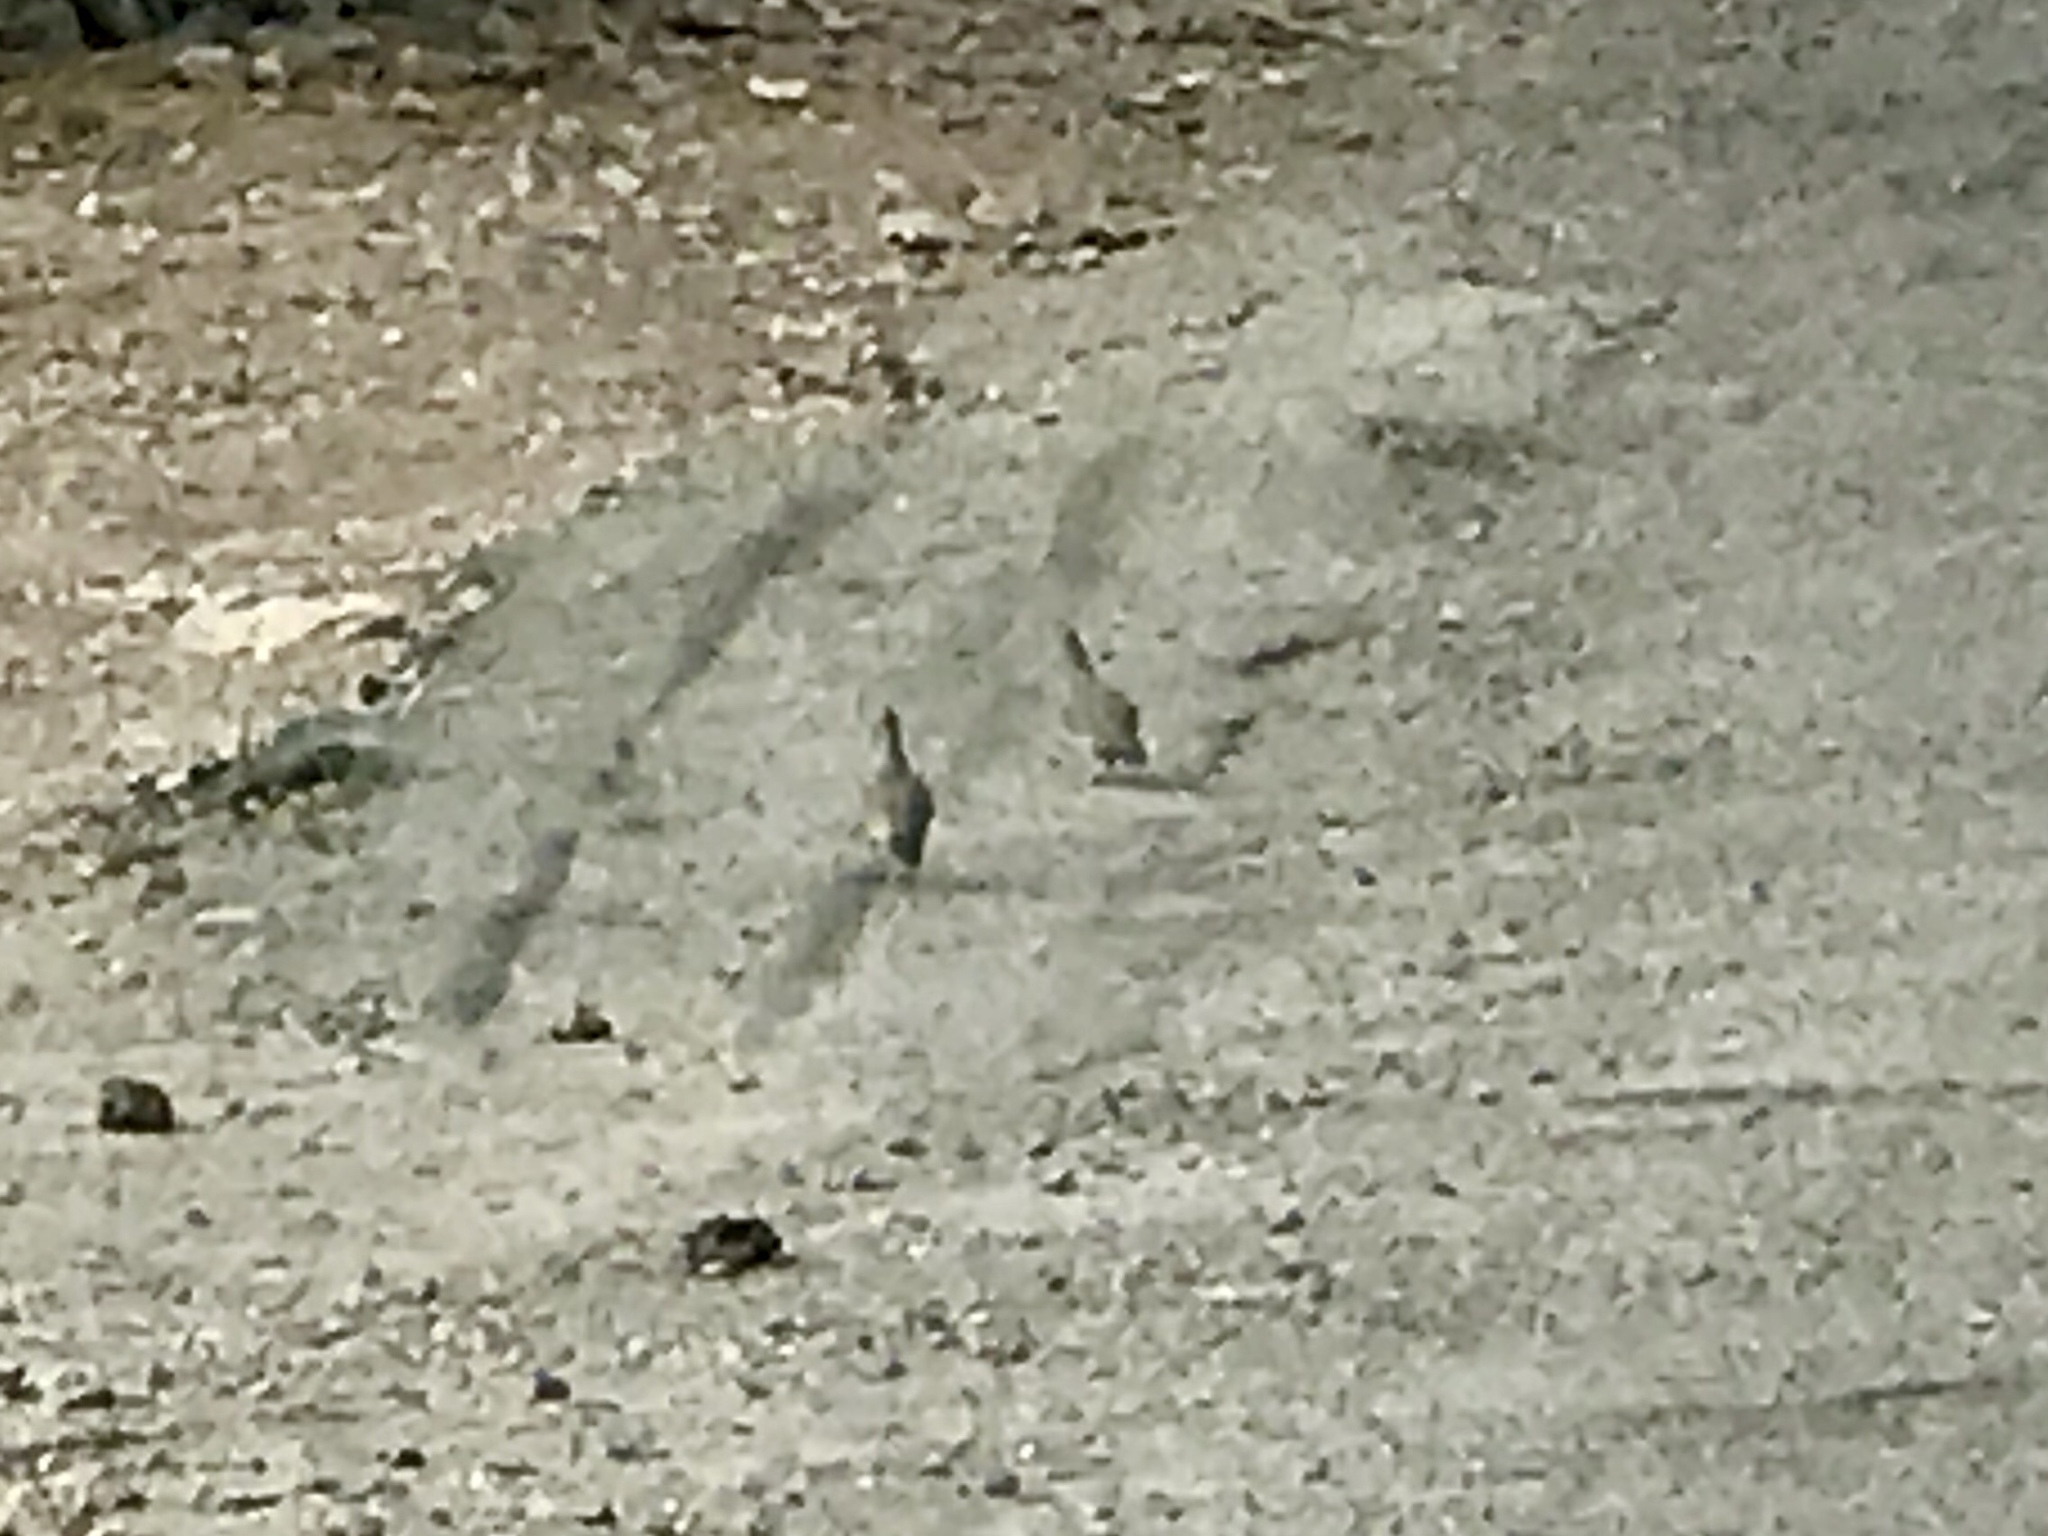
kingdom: Animalia
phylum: Chordata
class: Aves
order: Galliformes
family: Odontophoridae
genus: Callipepla
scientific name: Callipepla gambelii
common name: Gambel's quail
